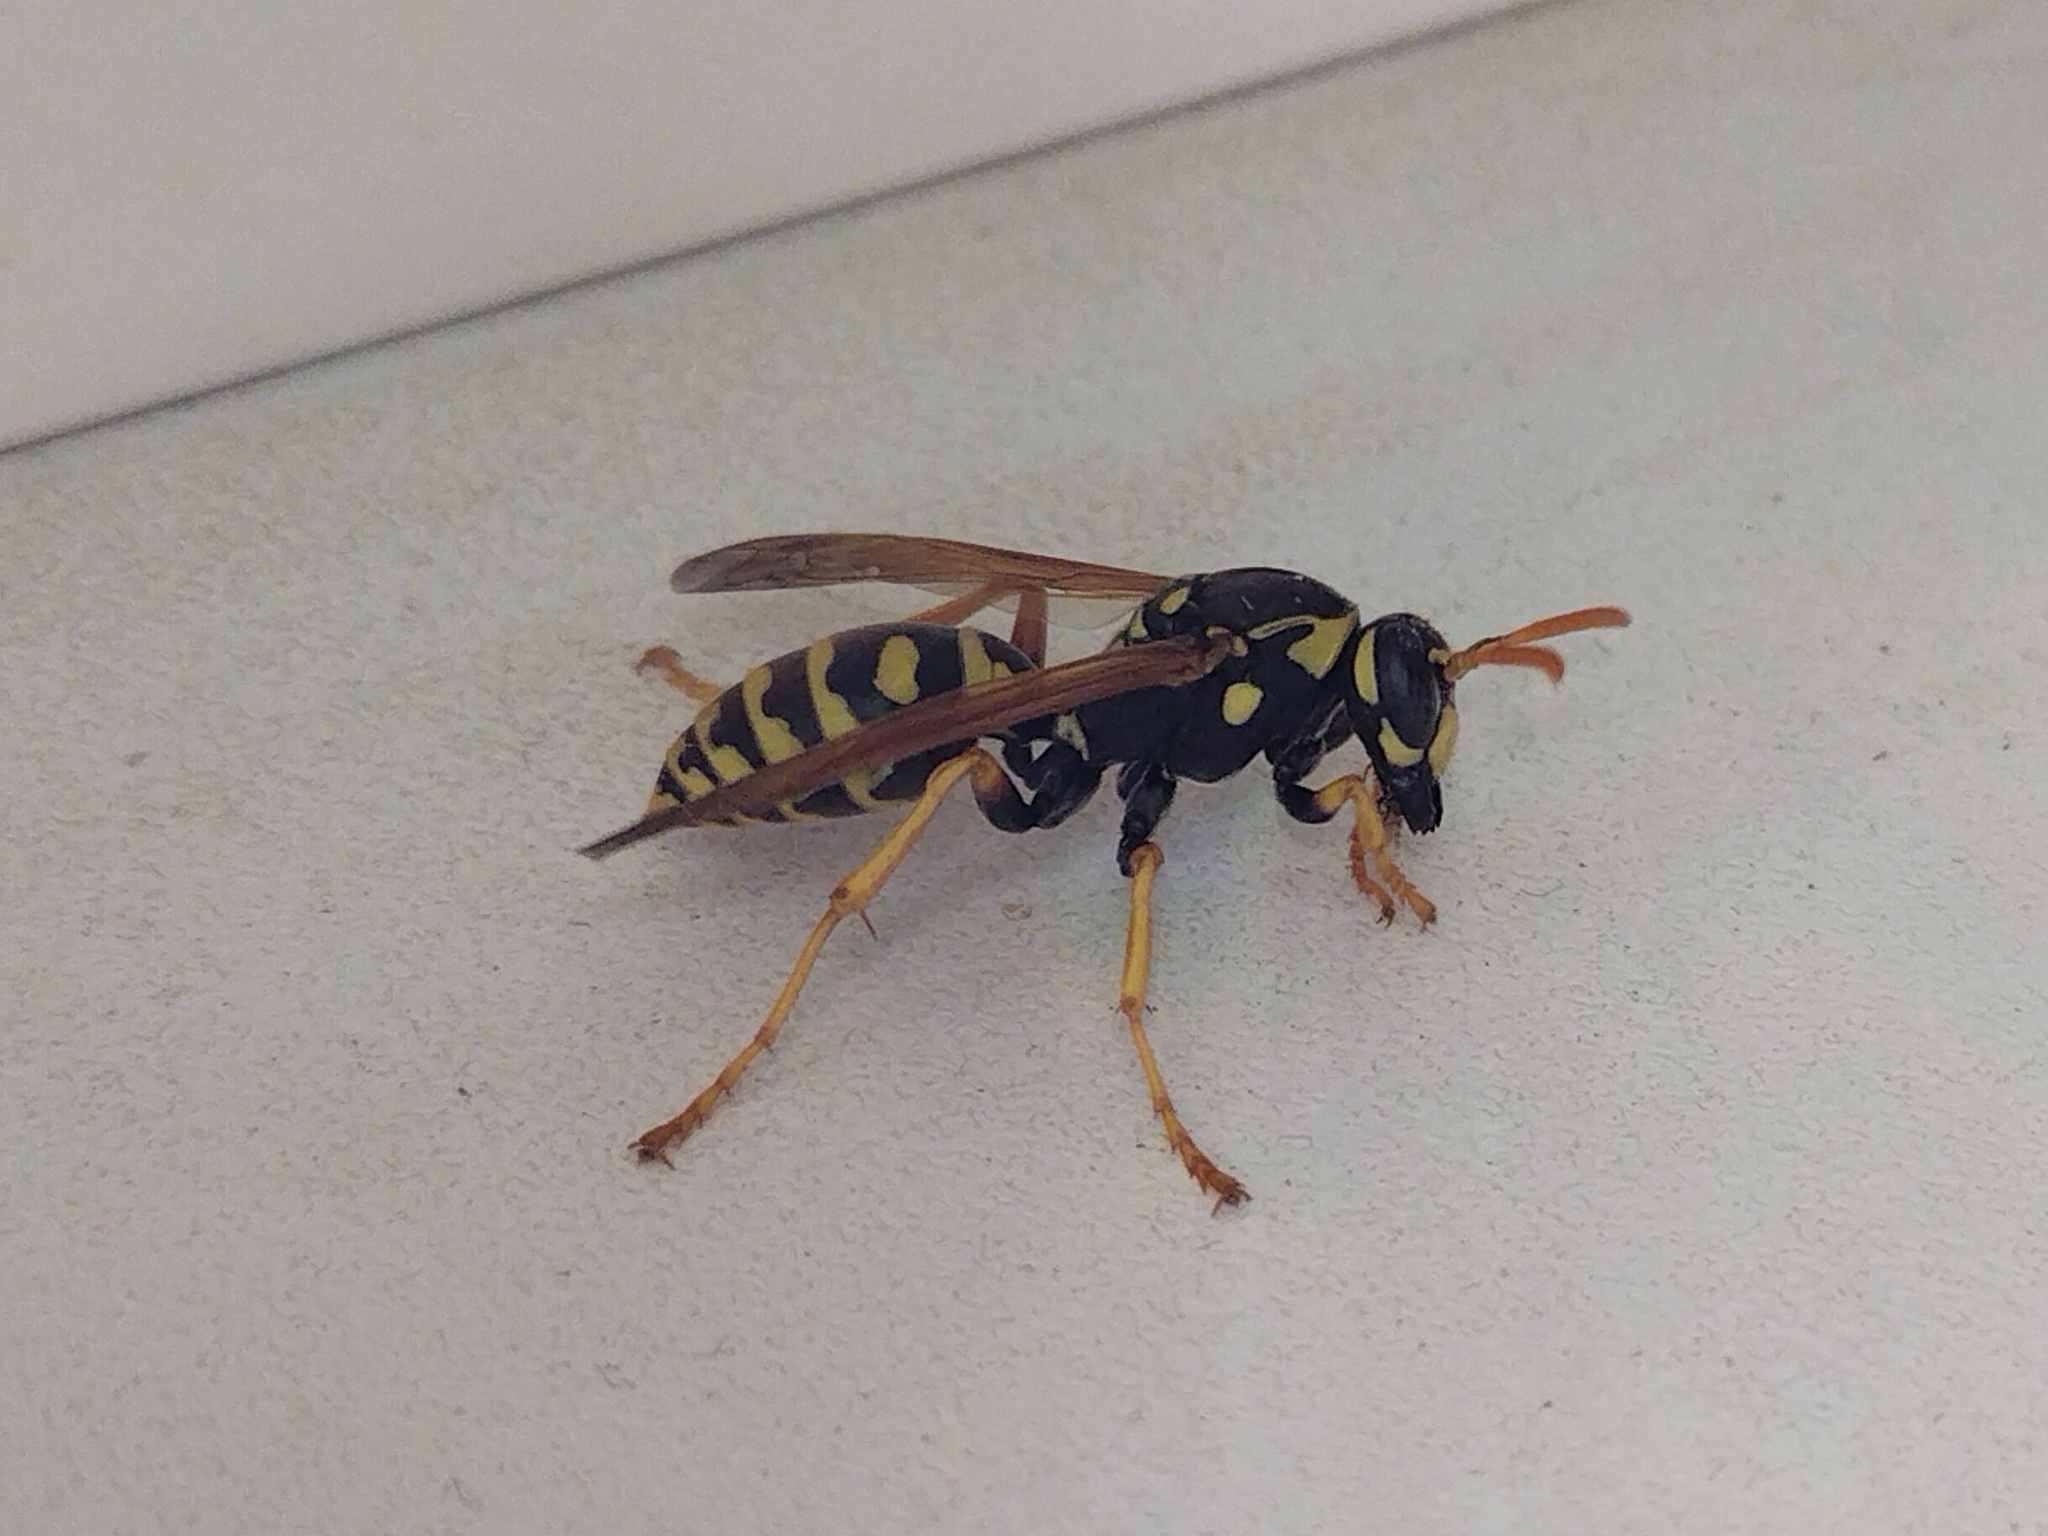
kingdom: Animalia
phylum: Arthropoda
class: Insecta
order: Hymenoptera
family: Eumenidae
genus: Polistes
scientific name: Polistes dominula
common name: Paper wasp
